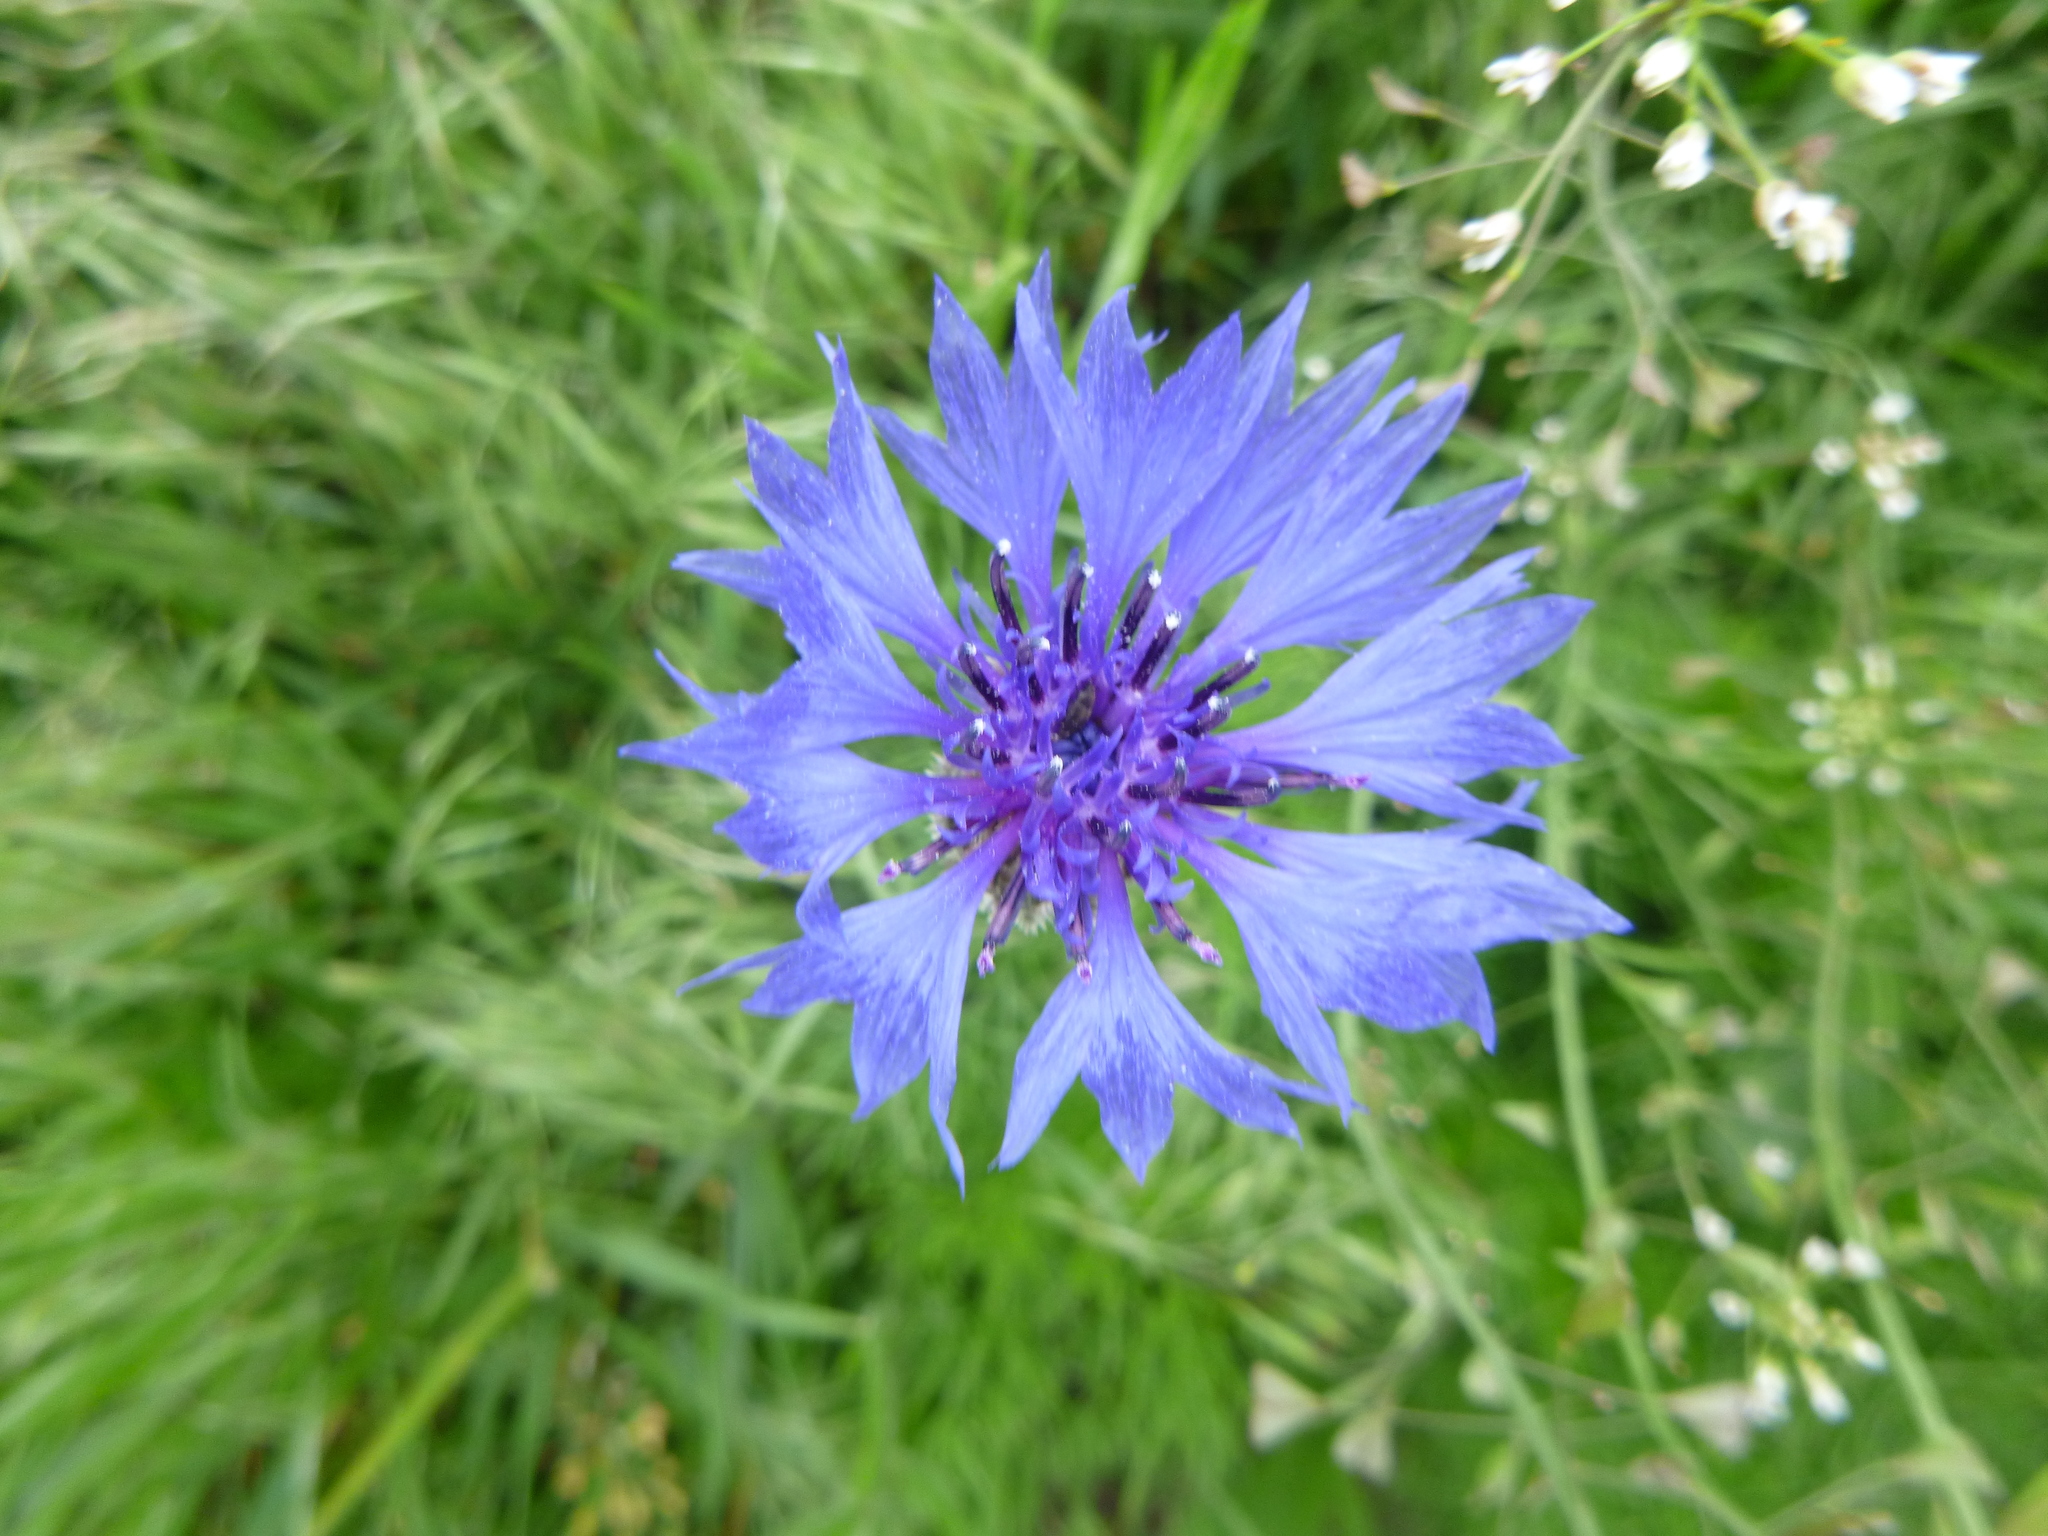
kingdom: Plantae
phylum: Tracheophyta
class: Magnoliopsida
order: Asterales
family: Asteraceae
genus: Centaurea
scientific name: Centaurea cyanus
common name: Cornflower
